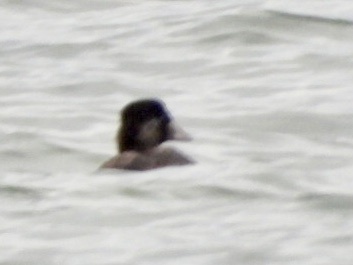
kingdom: Animalia
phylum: Chordata
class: Aves
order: Anseriformes
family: Anatidae
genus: Melanitta
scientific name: Melanitta perspicillata
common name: Surf scoter
